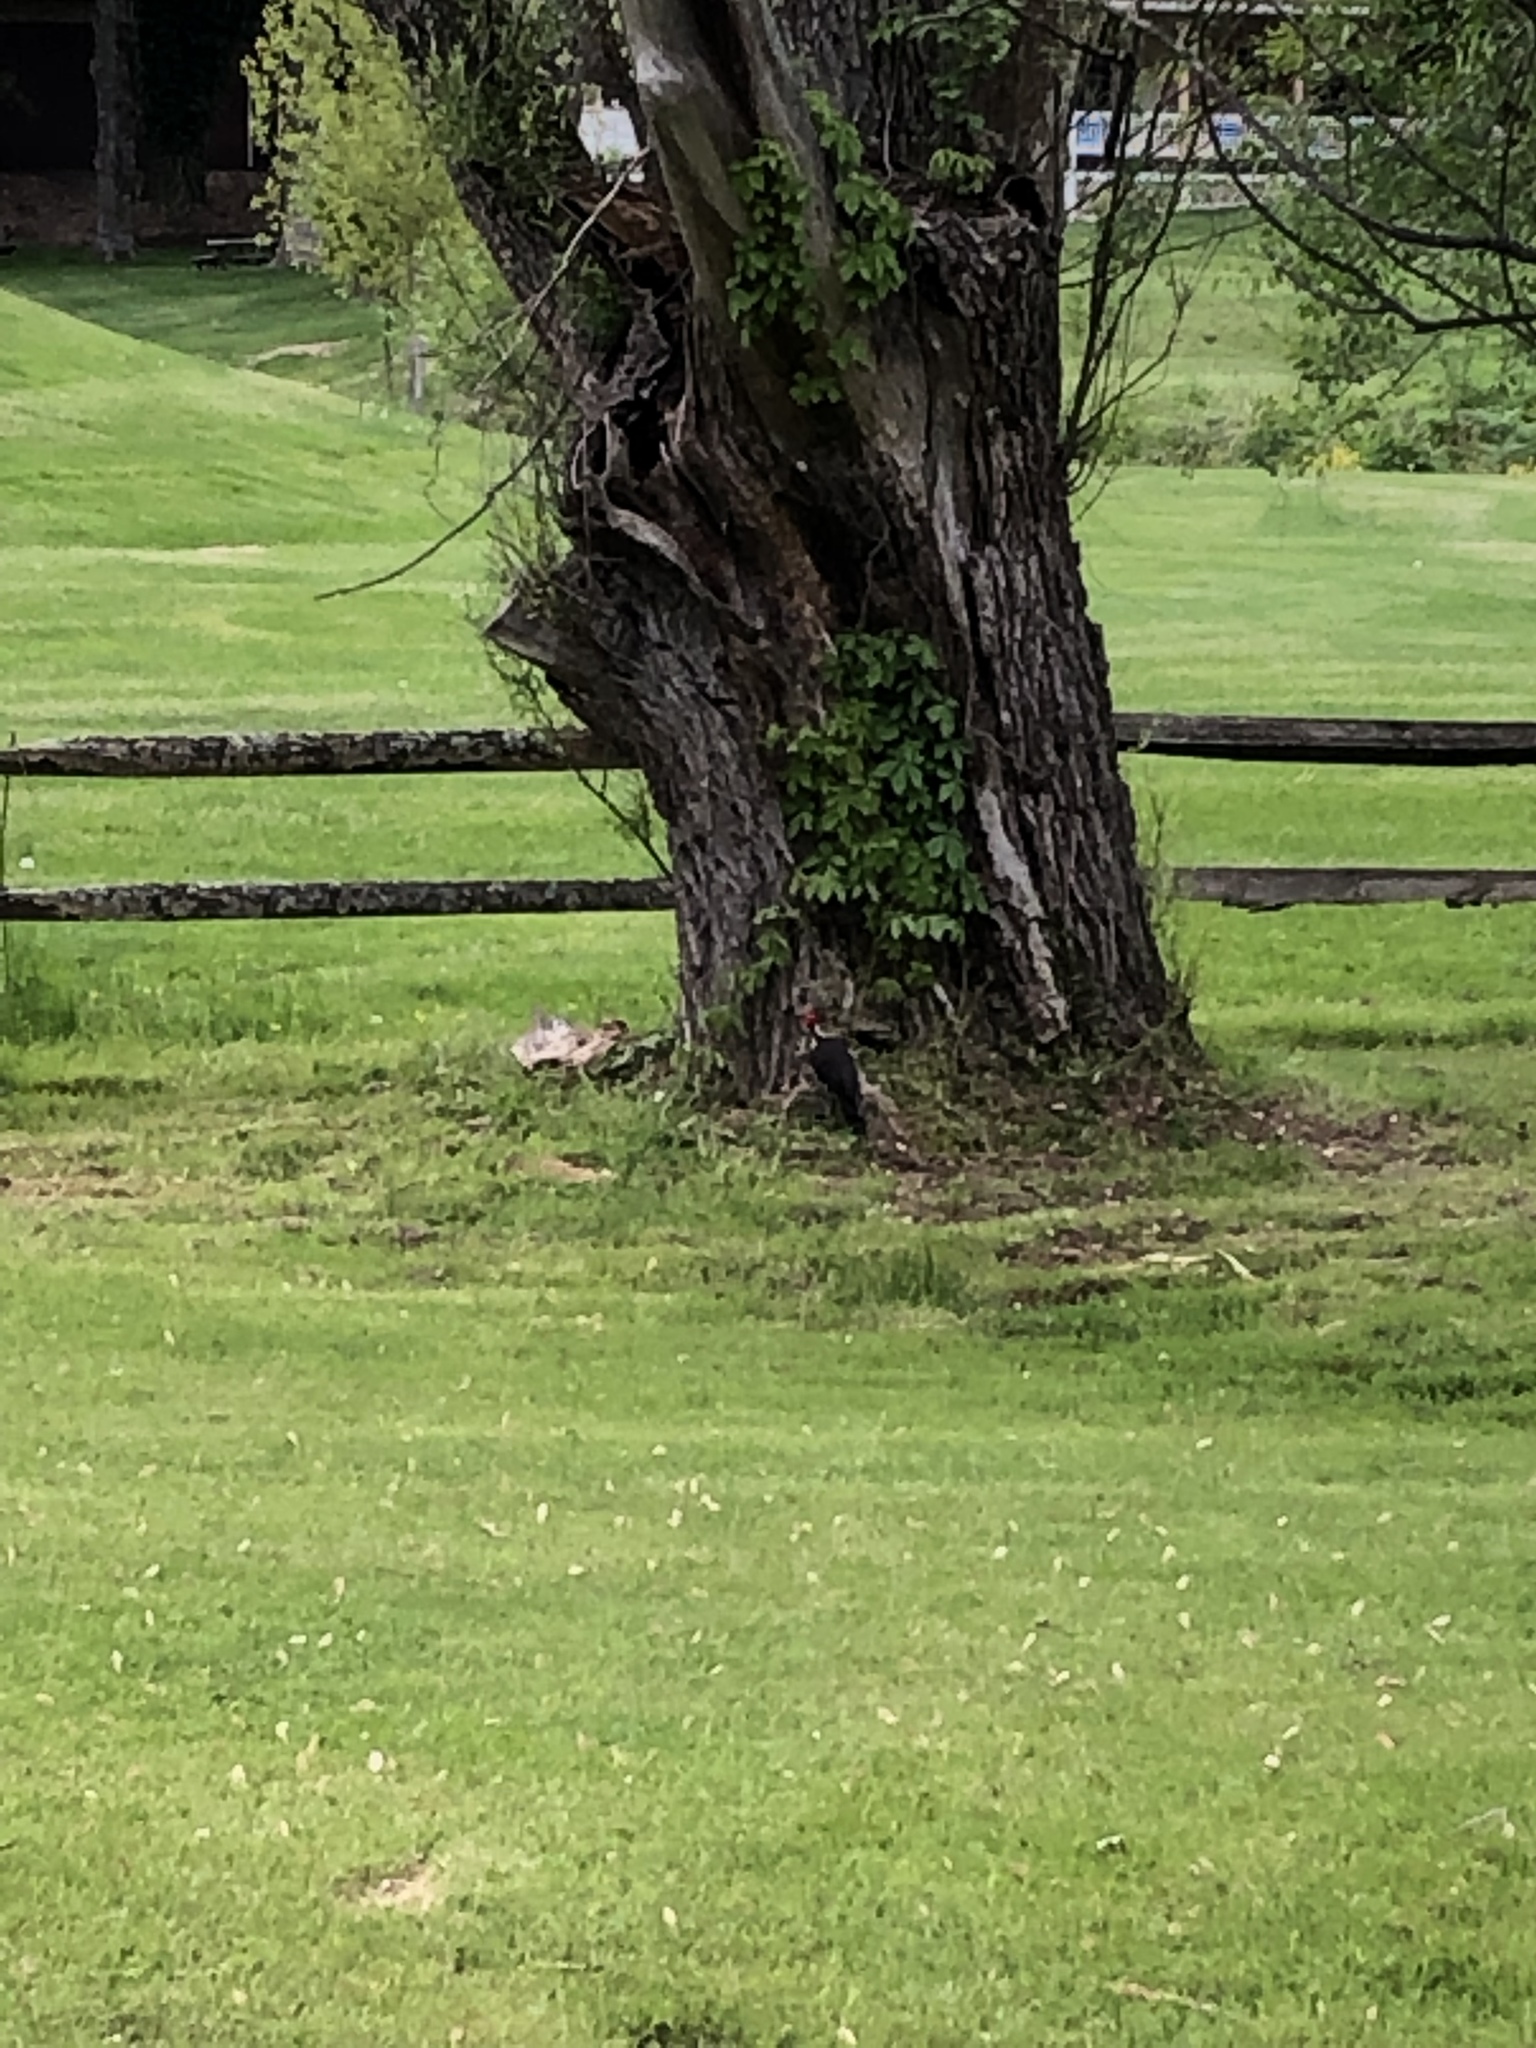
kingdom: Animalia
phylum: Chordata
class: Aves
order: Piciformes
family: Picidae
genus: Dryocopus
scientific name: Dryocopus pileatus
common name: Pileated woodpecker
